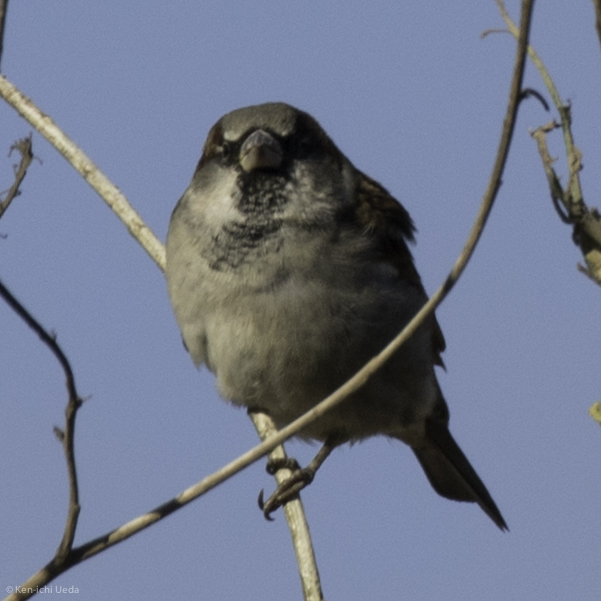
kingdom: Animalia
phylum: Chordata
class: Aves
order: Passeriformes
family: Passeridae
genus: Passer
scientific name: Passer domesticus
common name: House sparrow
